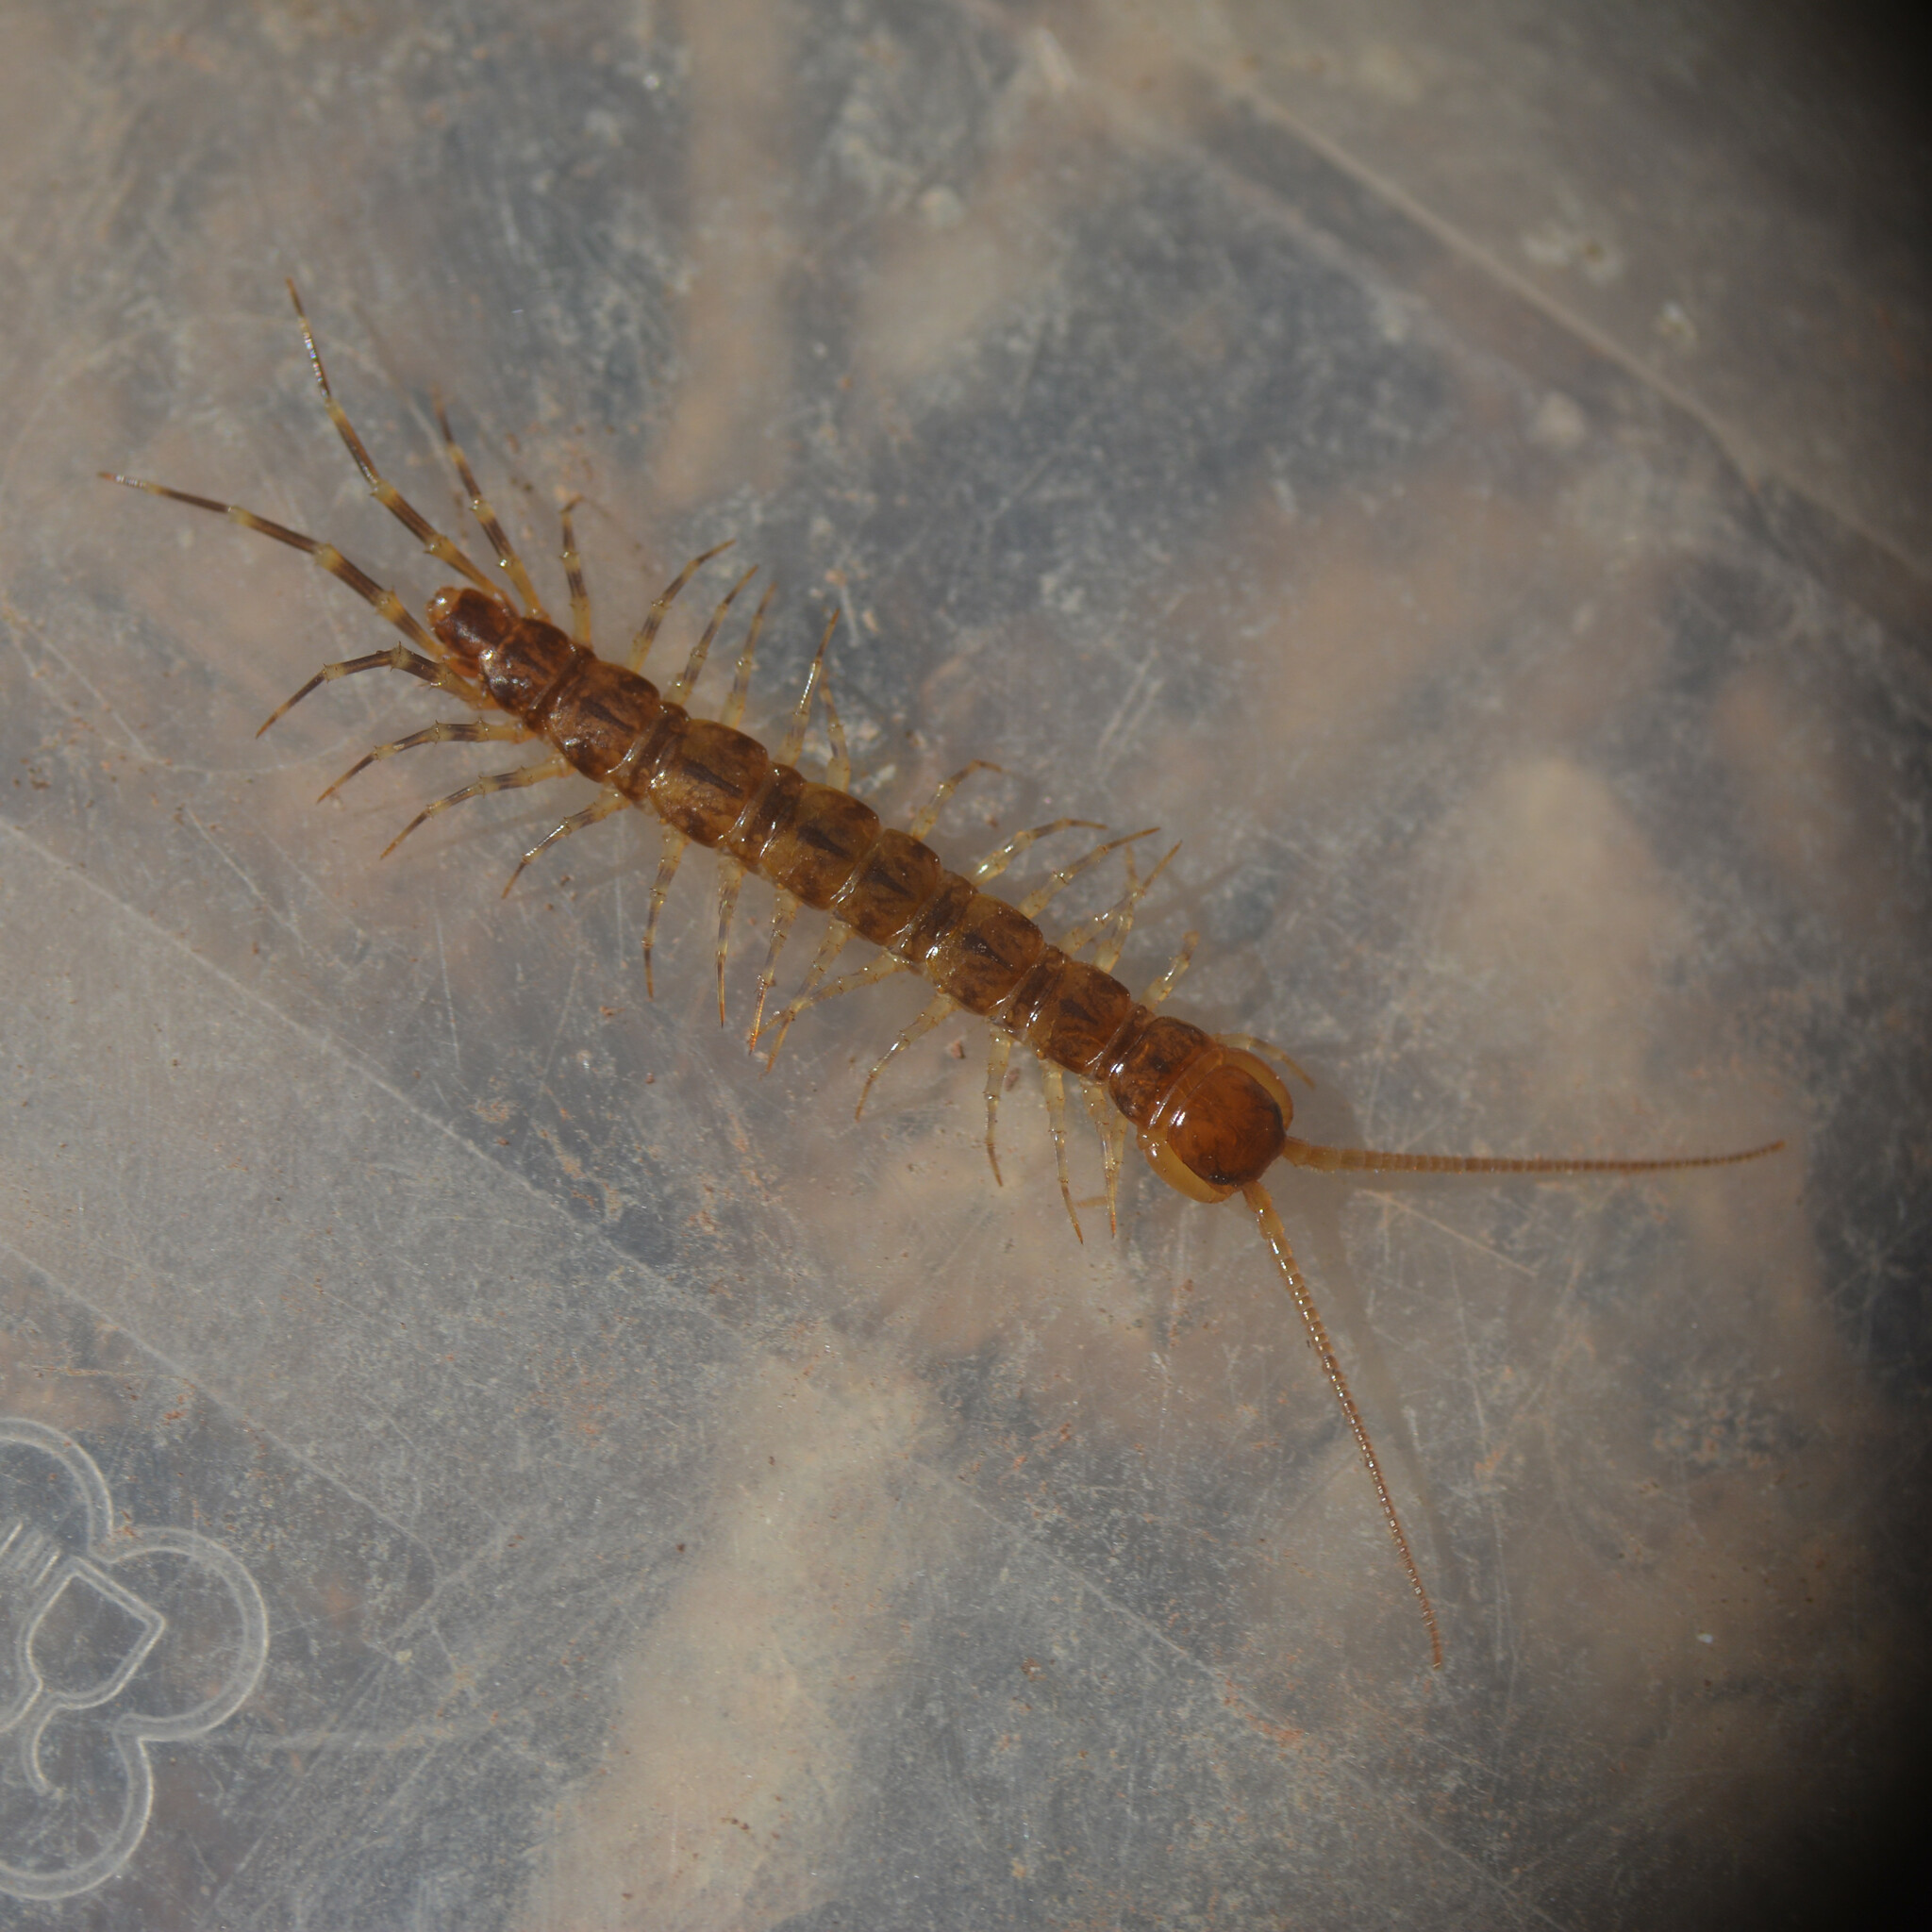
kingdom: Animalia
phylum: Arthropoda
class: Chilopoda
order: Lithobiomorpha
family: Lithobiidae
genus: Lithobius
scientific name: Lithobius variegatus
